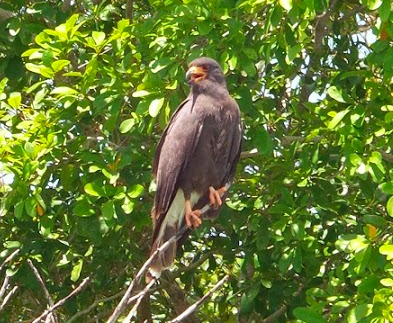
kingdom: Animalia
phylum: Chordata
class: Aves
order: Accipitriformes
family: Accipitridae
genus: Rostrhamus
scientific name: Rostrhamus sociabilis
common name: Snail kite
